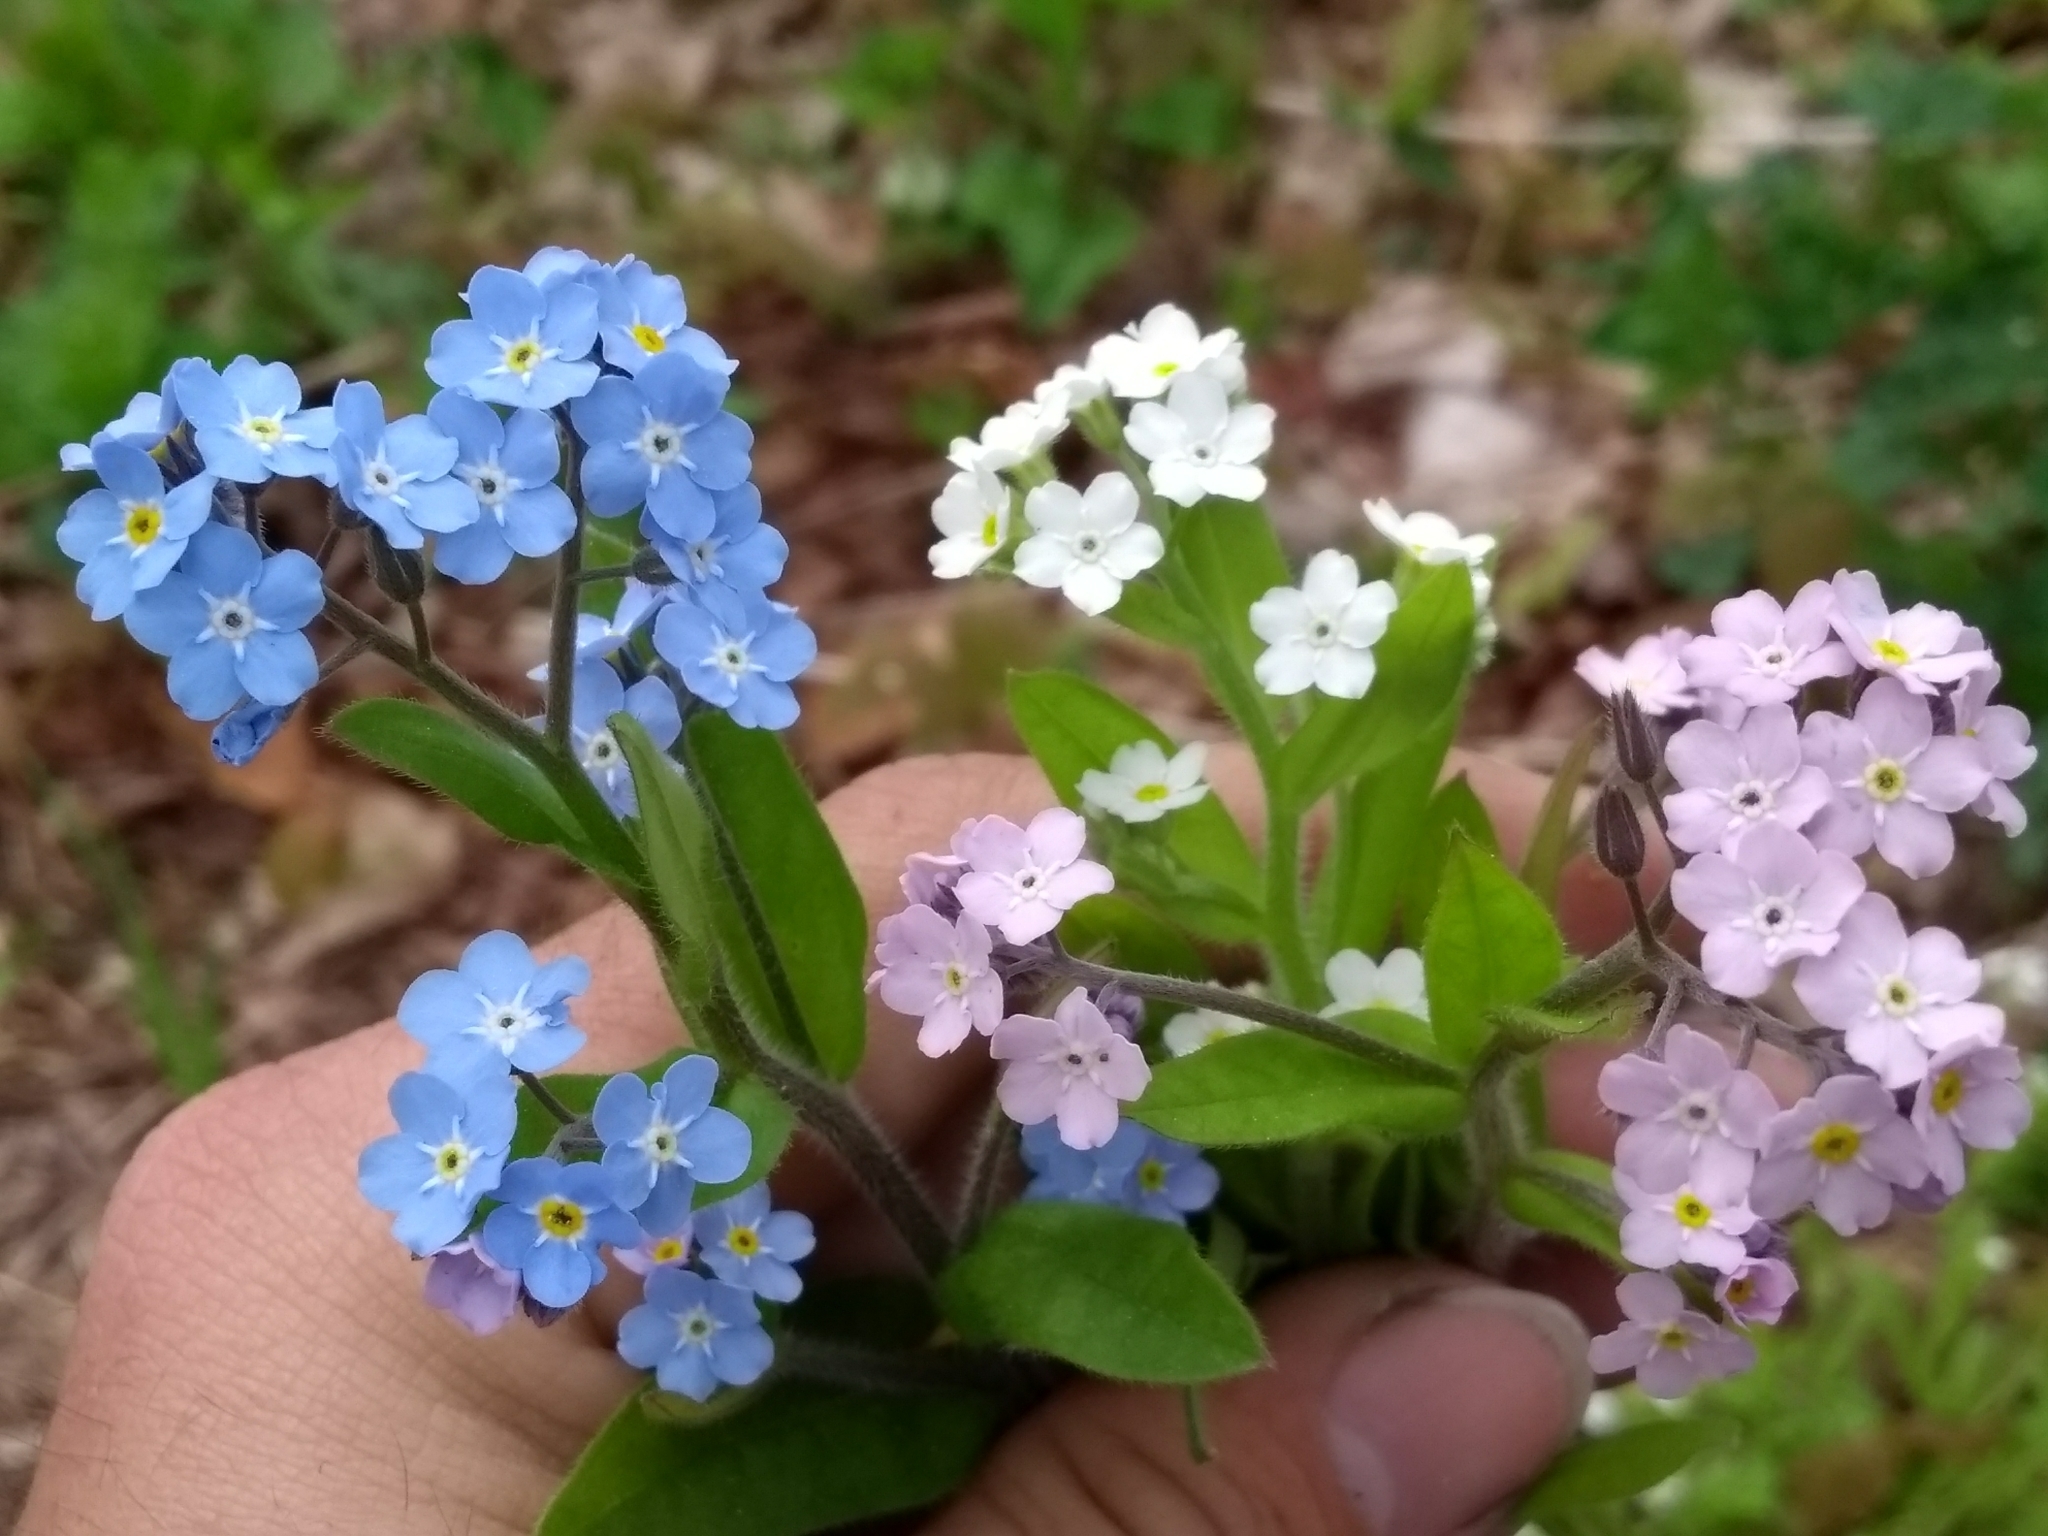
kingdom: Plantae
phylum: Tracheophyta
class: Magnoliopsida
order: Boraginales
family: Boraginaceae
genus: Myosotis
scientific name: Myosotis sylvatica
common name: Wood forget-me-not
